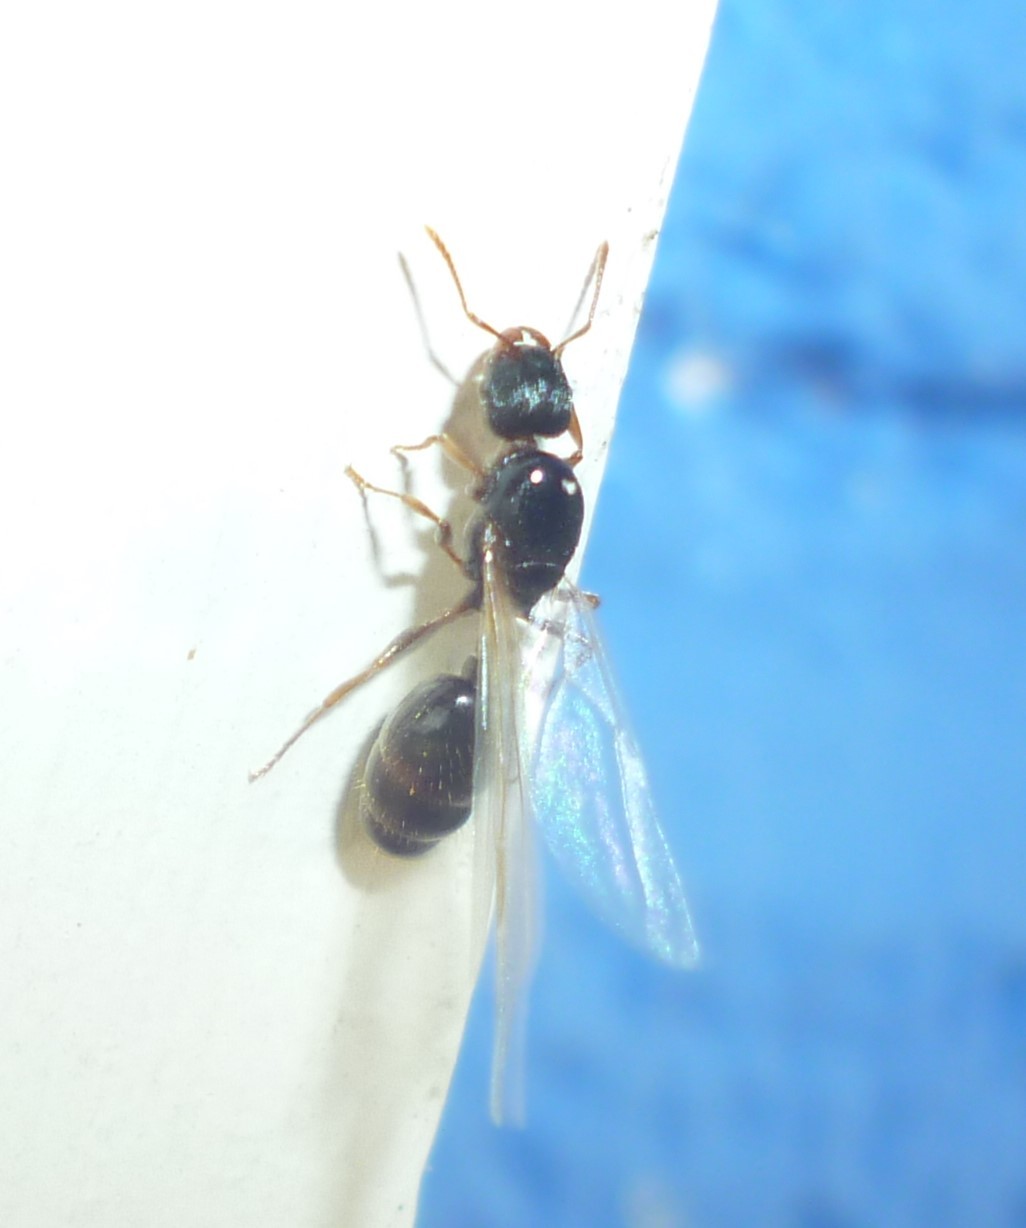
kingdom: Animalia
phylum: Arthropoda
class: Insecta
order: Hymenoptera
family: Formicidae
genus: Tetramorium
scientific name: Tetramorium immigrans
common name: Pavement ant
